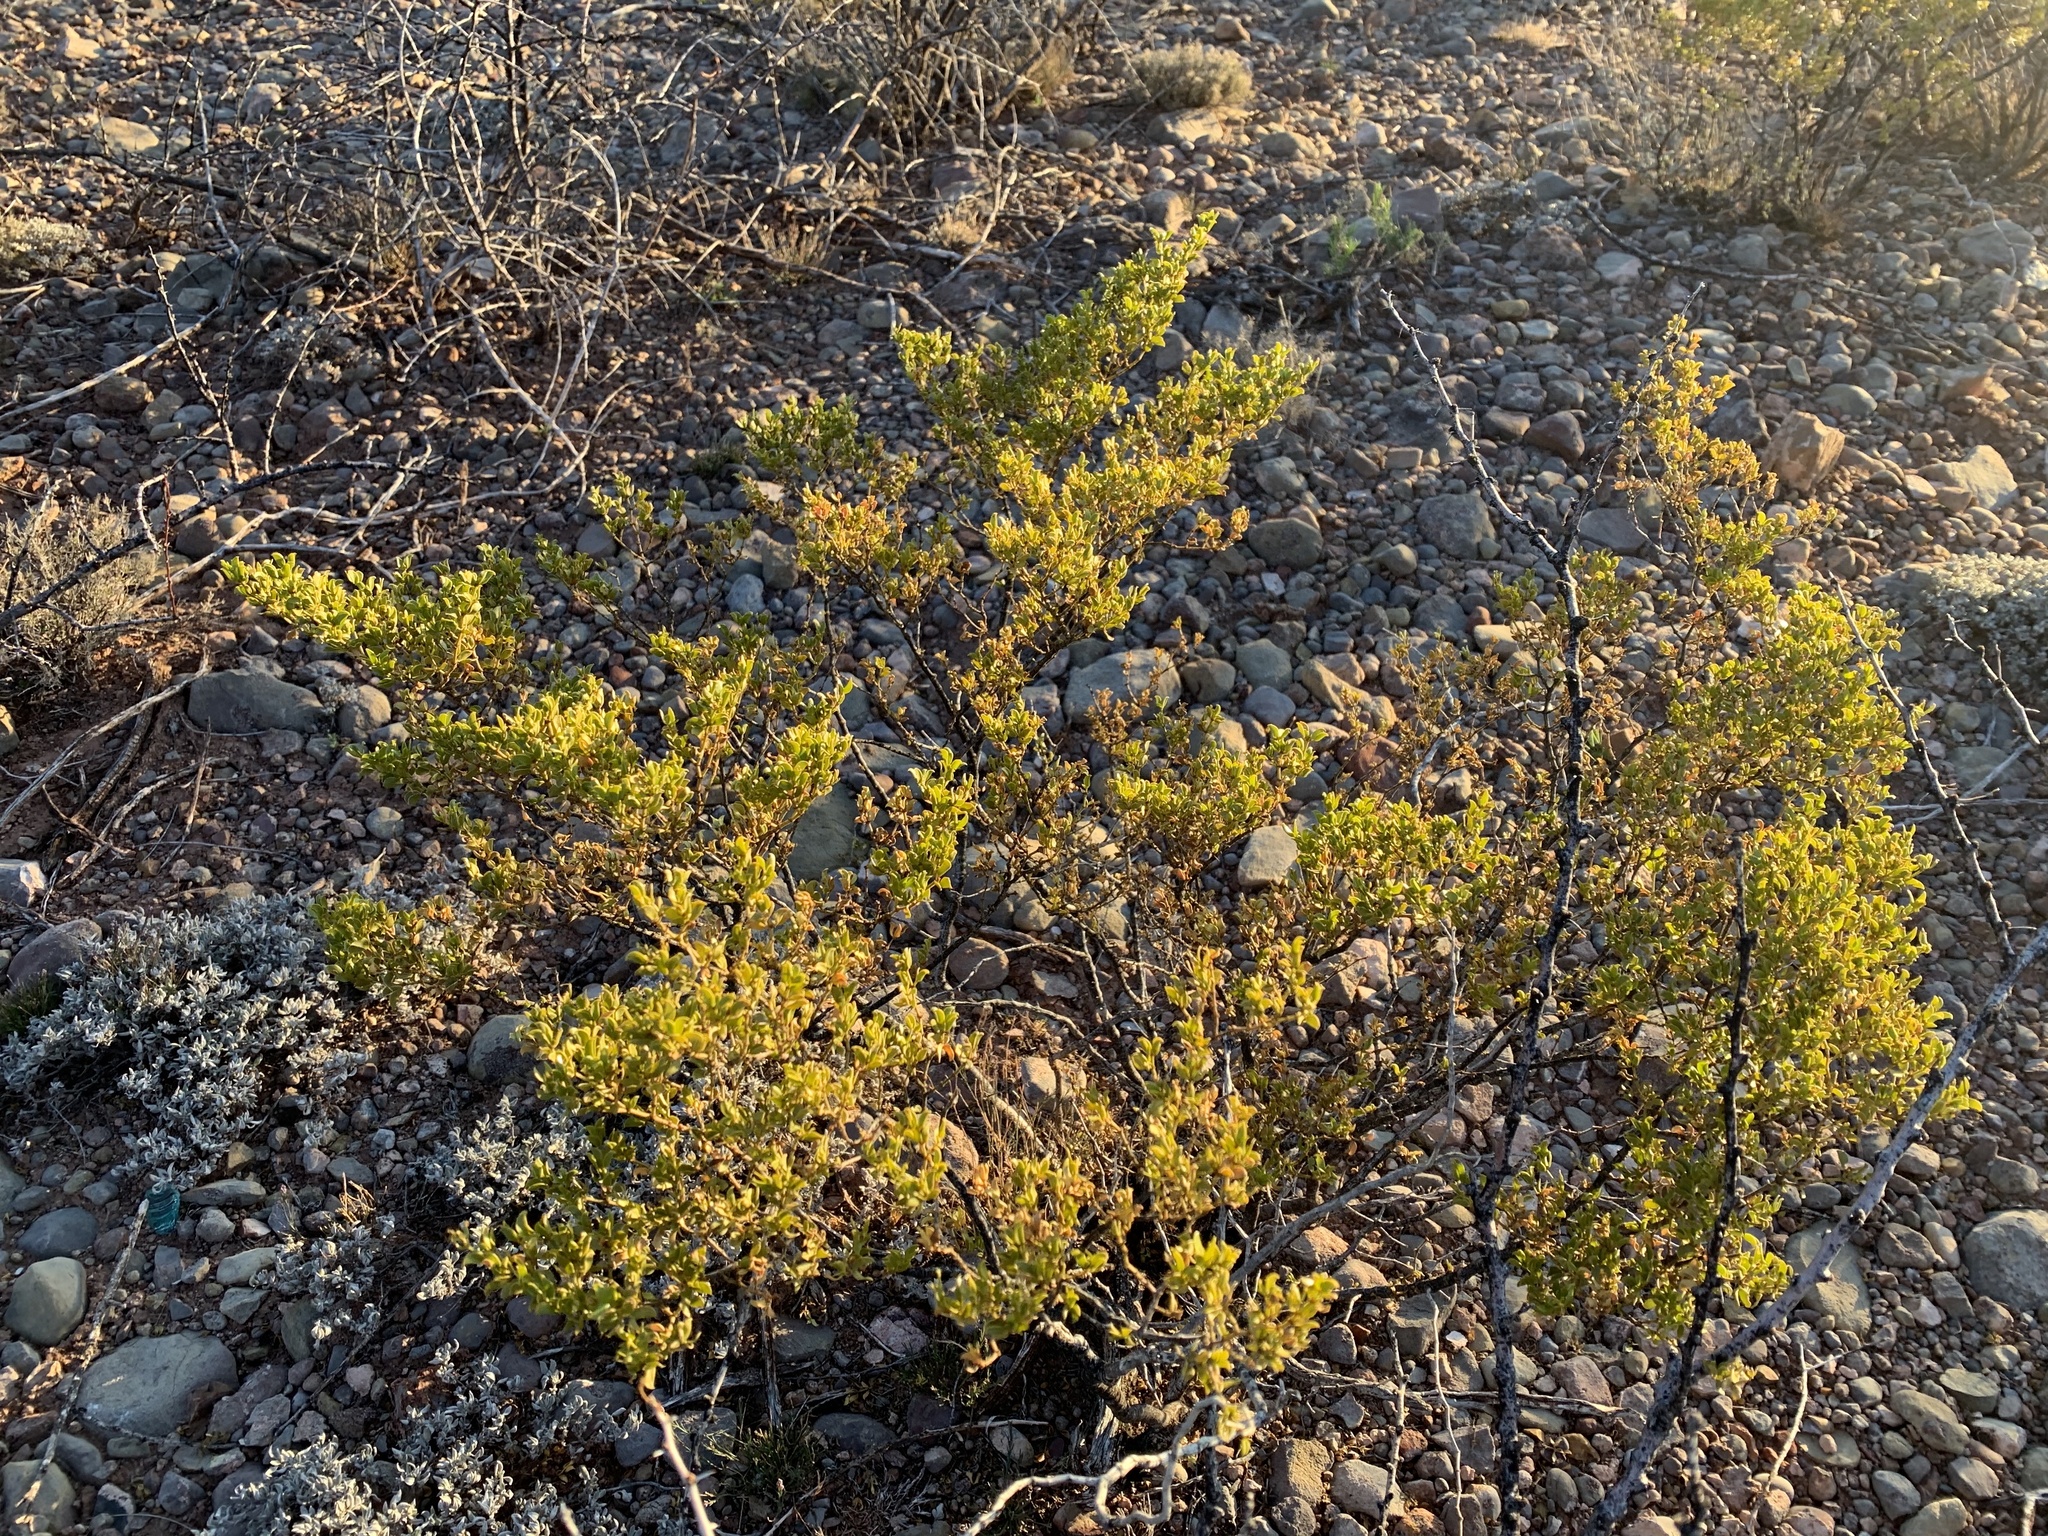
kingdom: Plantae
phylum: Tracheophyta
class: Magnoliopsida
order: Zygophyllales
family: Zygophyllaceae
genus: Larrea
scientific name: Larrea tridentata
